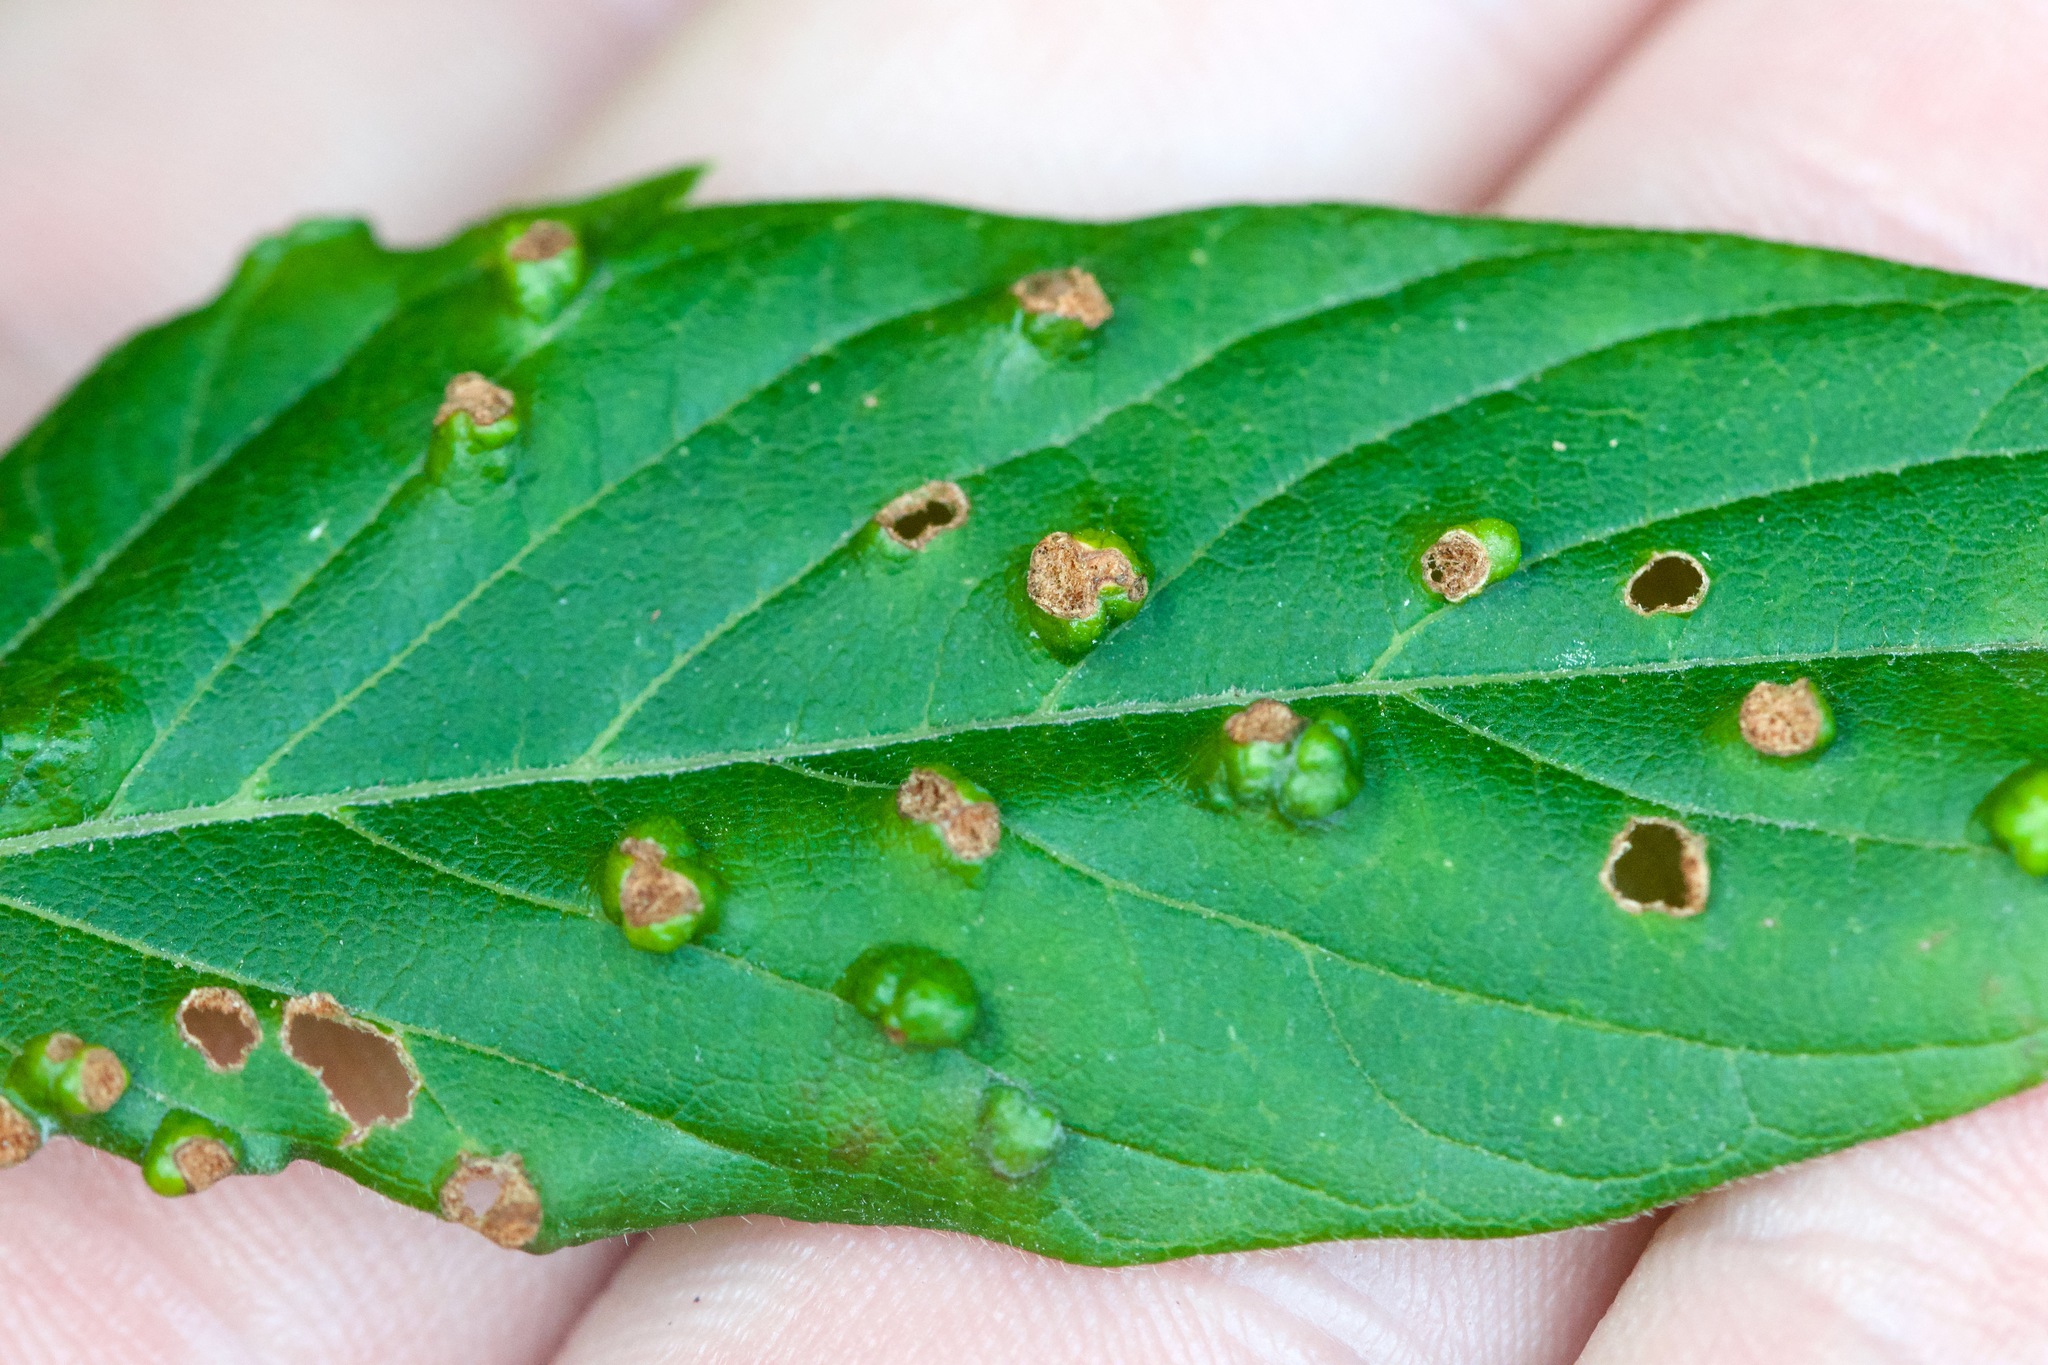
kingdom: Animalia
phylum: Arthropoda
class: Arachnida
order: Trombidiformes
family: Eriophyidae
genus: Aceria
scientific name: Aceria
